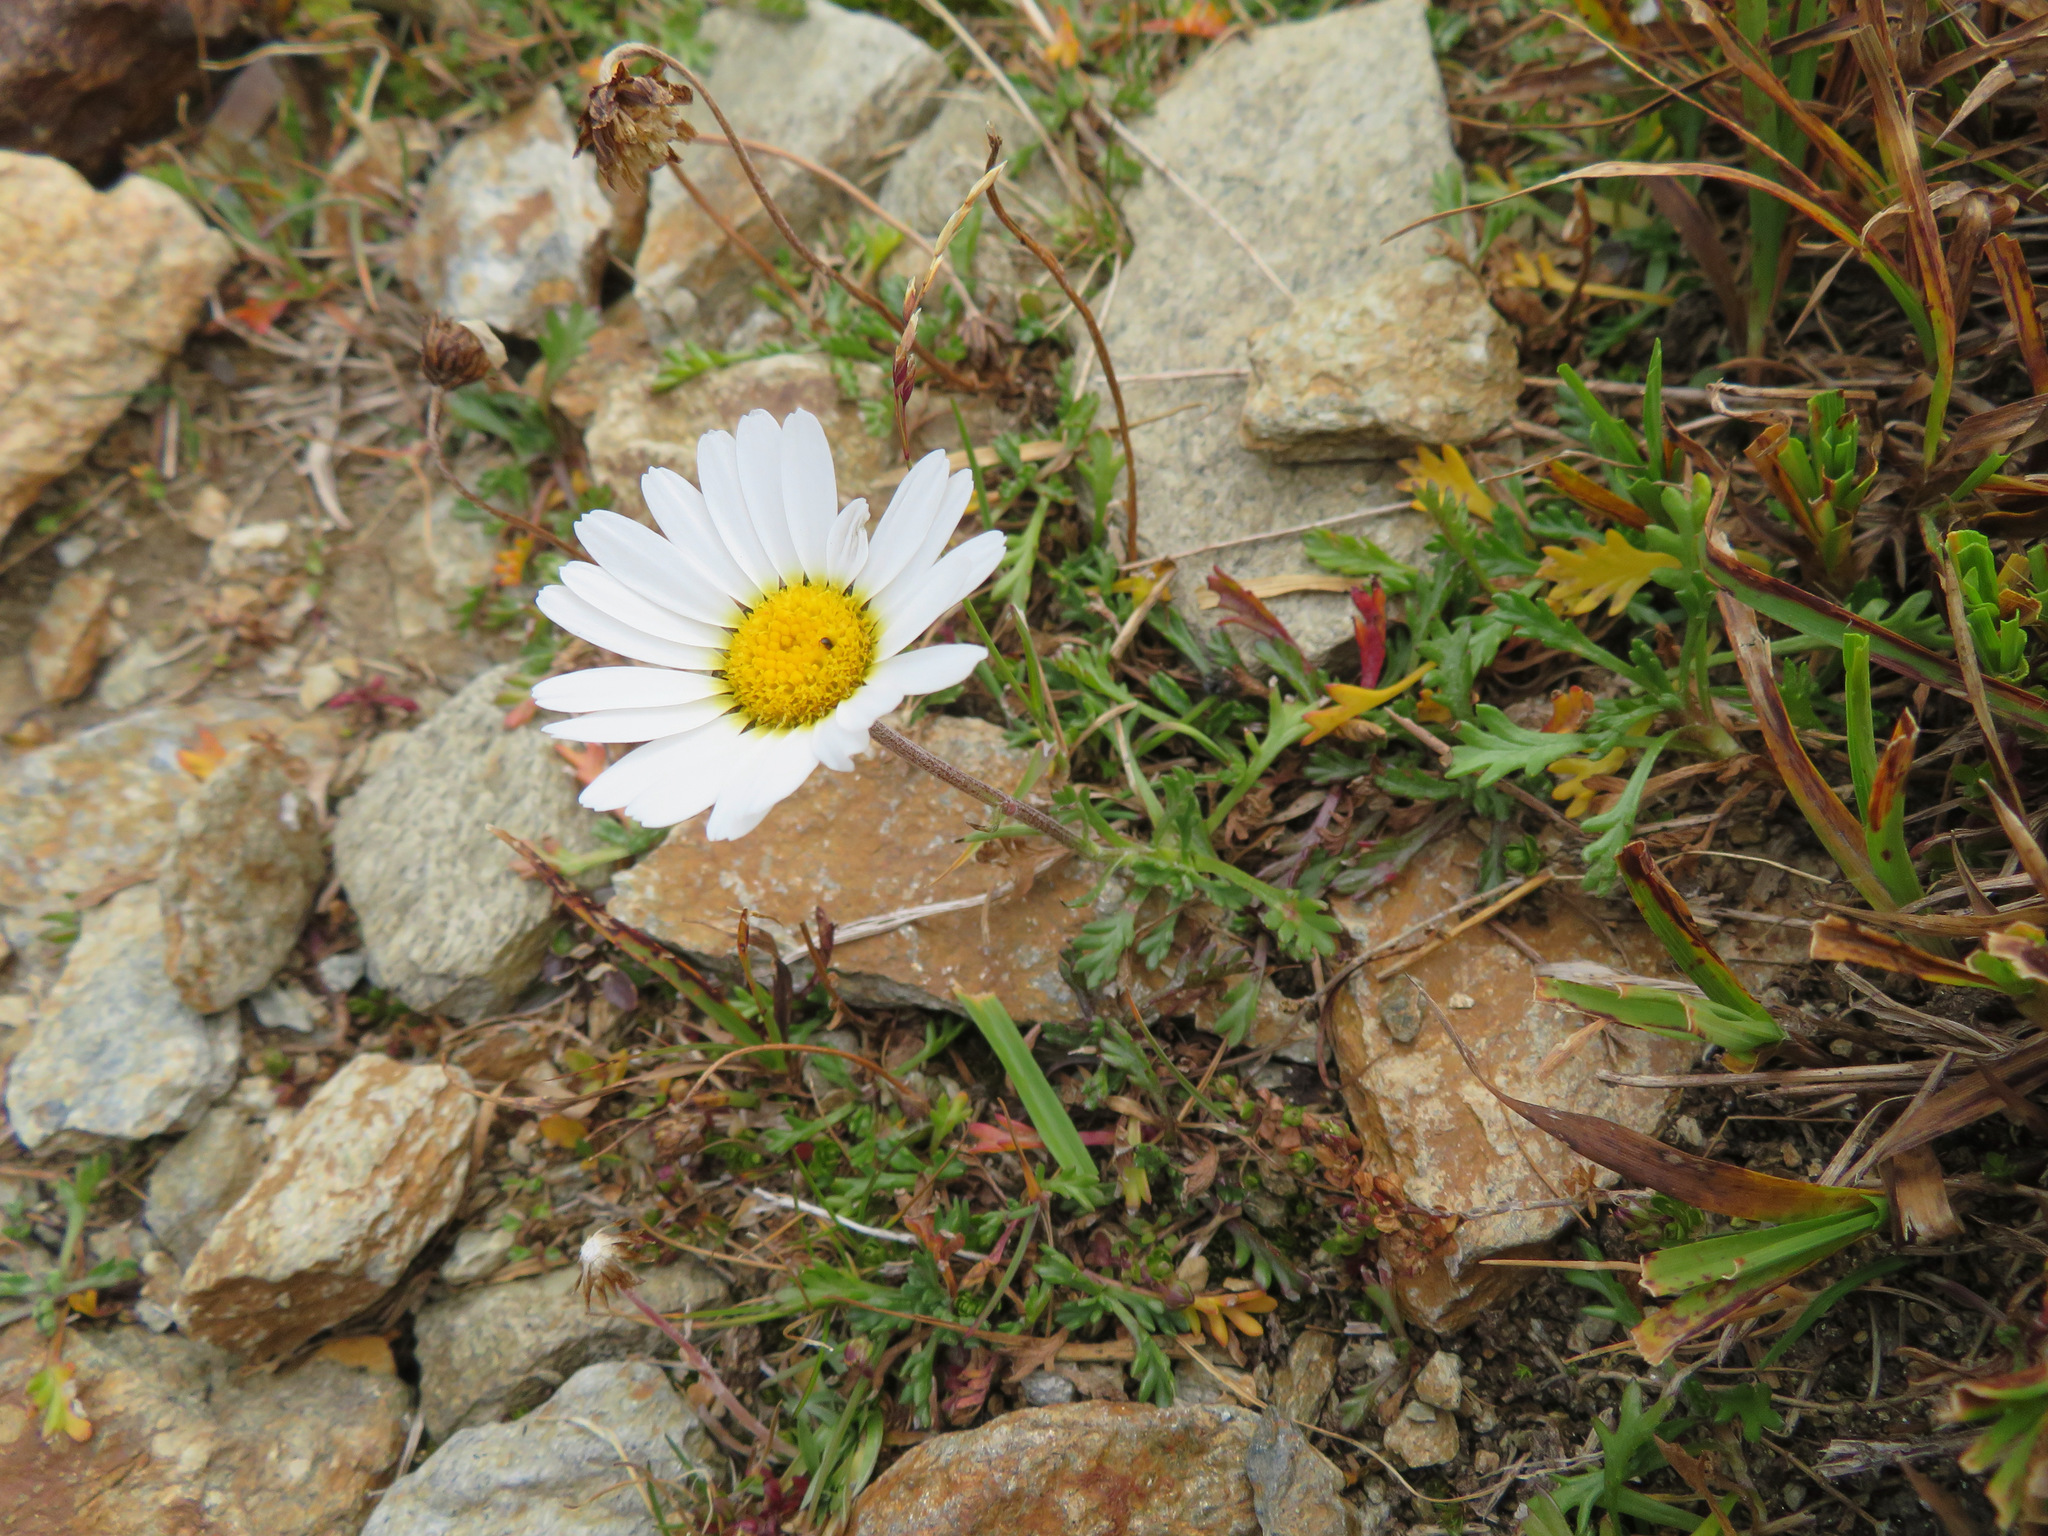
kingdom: Plantae
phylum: Tracheophyta
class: Magnoliopsida
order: Asterales
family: Asteraceae
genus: Leucanthemopsis
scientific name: Leucanthemopsis alpina
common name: Alpine moon daisy
